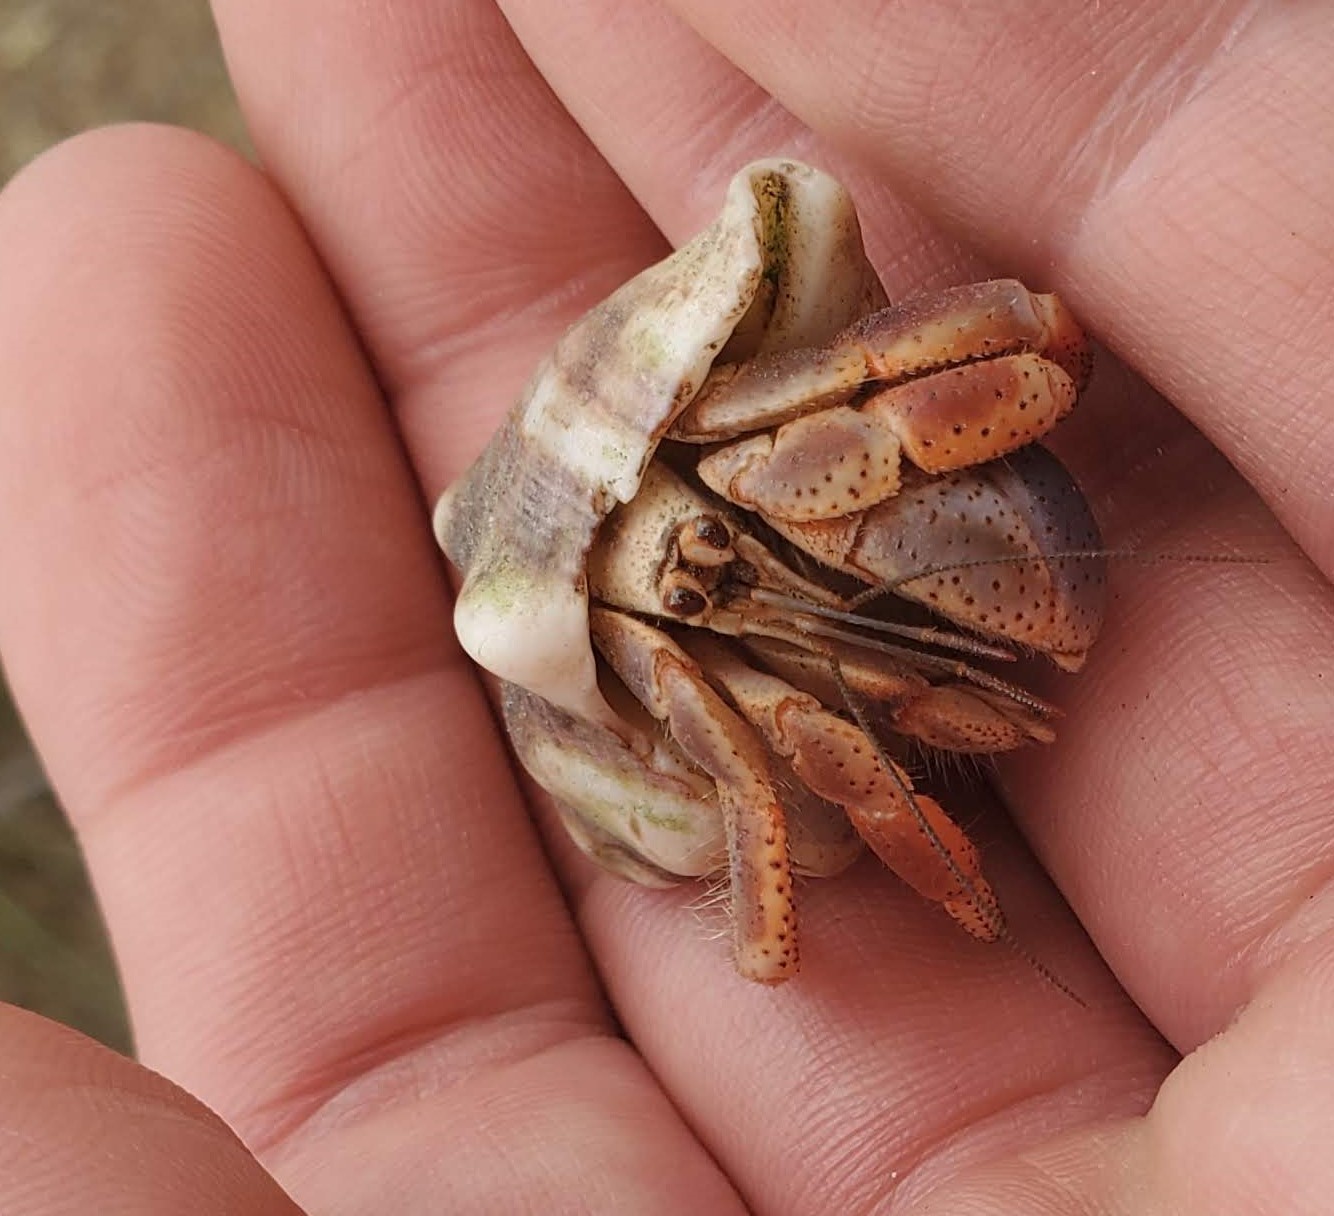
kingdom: Animalia
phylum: Arthropoda
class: Malacostraca
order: Decapoda
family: Coenobitidae
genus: Coenobita
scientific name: Coenobita clypeatus
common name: Caribbean hermit crab
